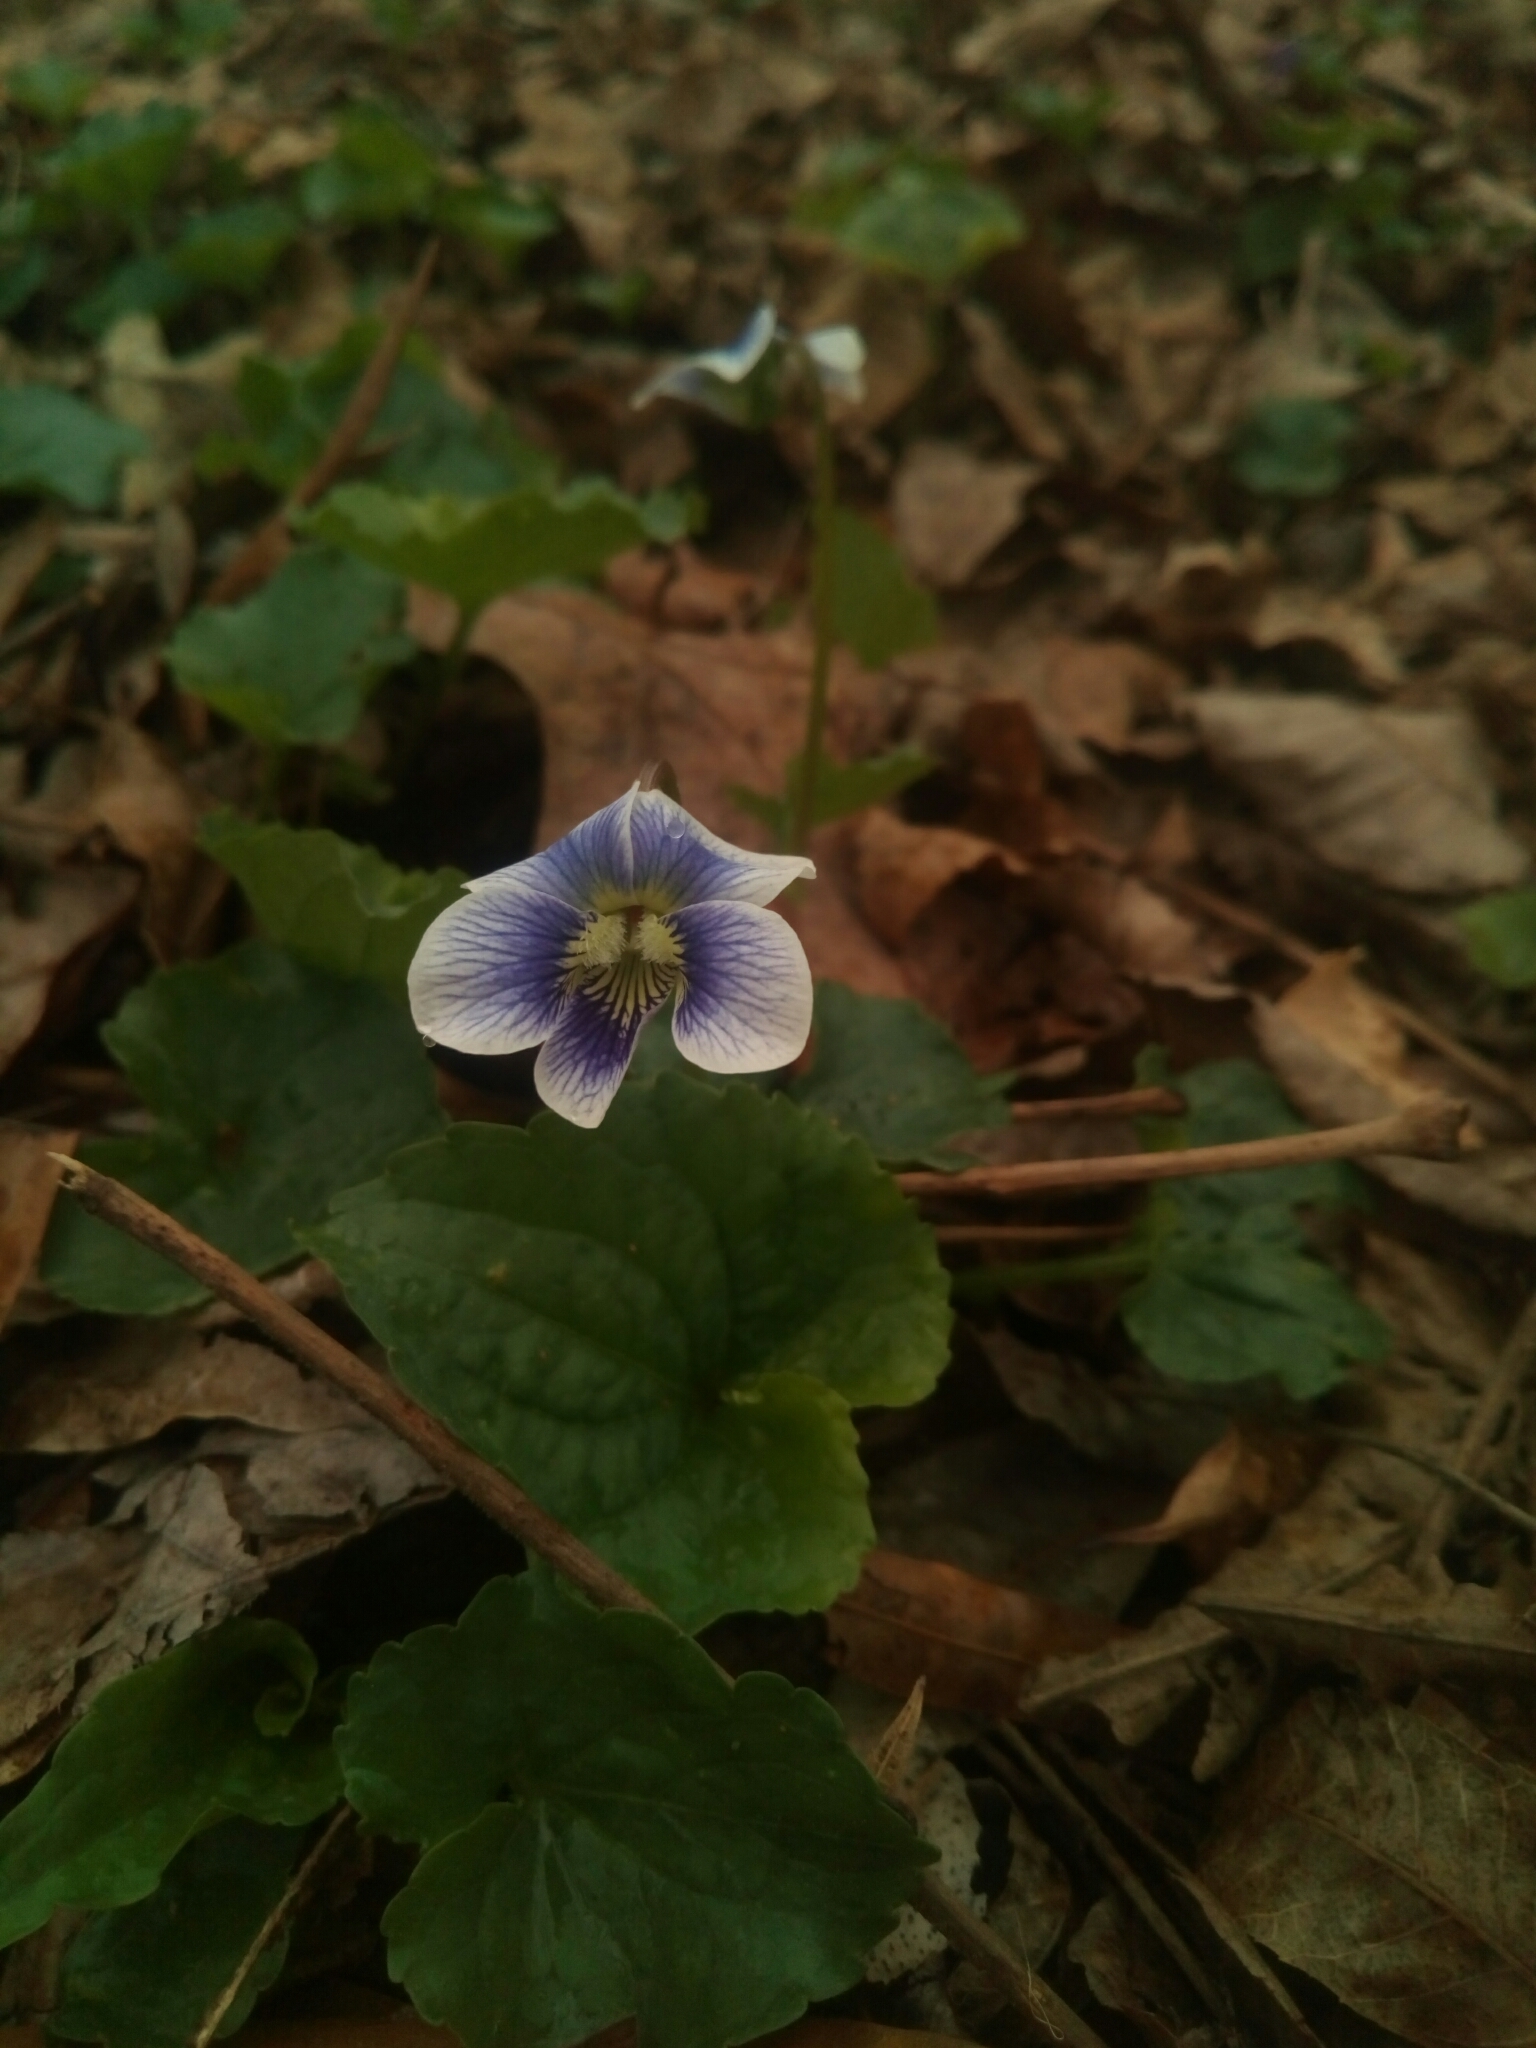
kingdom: Plantae
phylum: Tracheophyta
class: Magnoliopsida
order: Malpighiales
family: Violaceae
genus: Viola
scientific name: Viola sororia
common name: Dooryard violet
